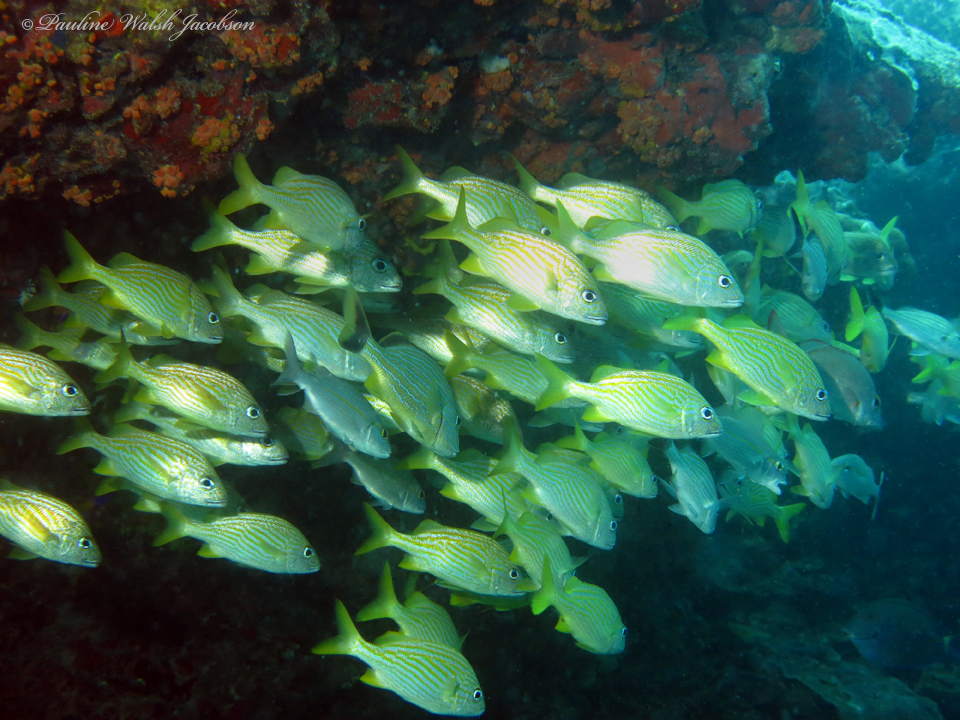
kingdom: Animalia
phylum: Chordata
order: Perciformes
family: Haemulidae
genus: Haemulon
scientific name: Haemulon flavolineatum
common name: French grunt
